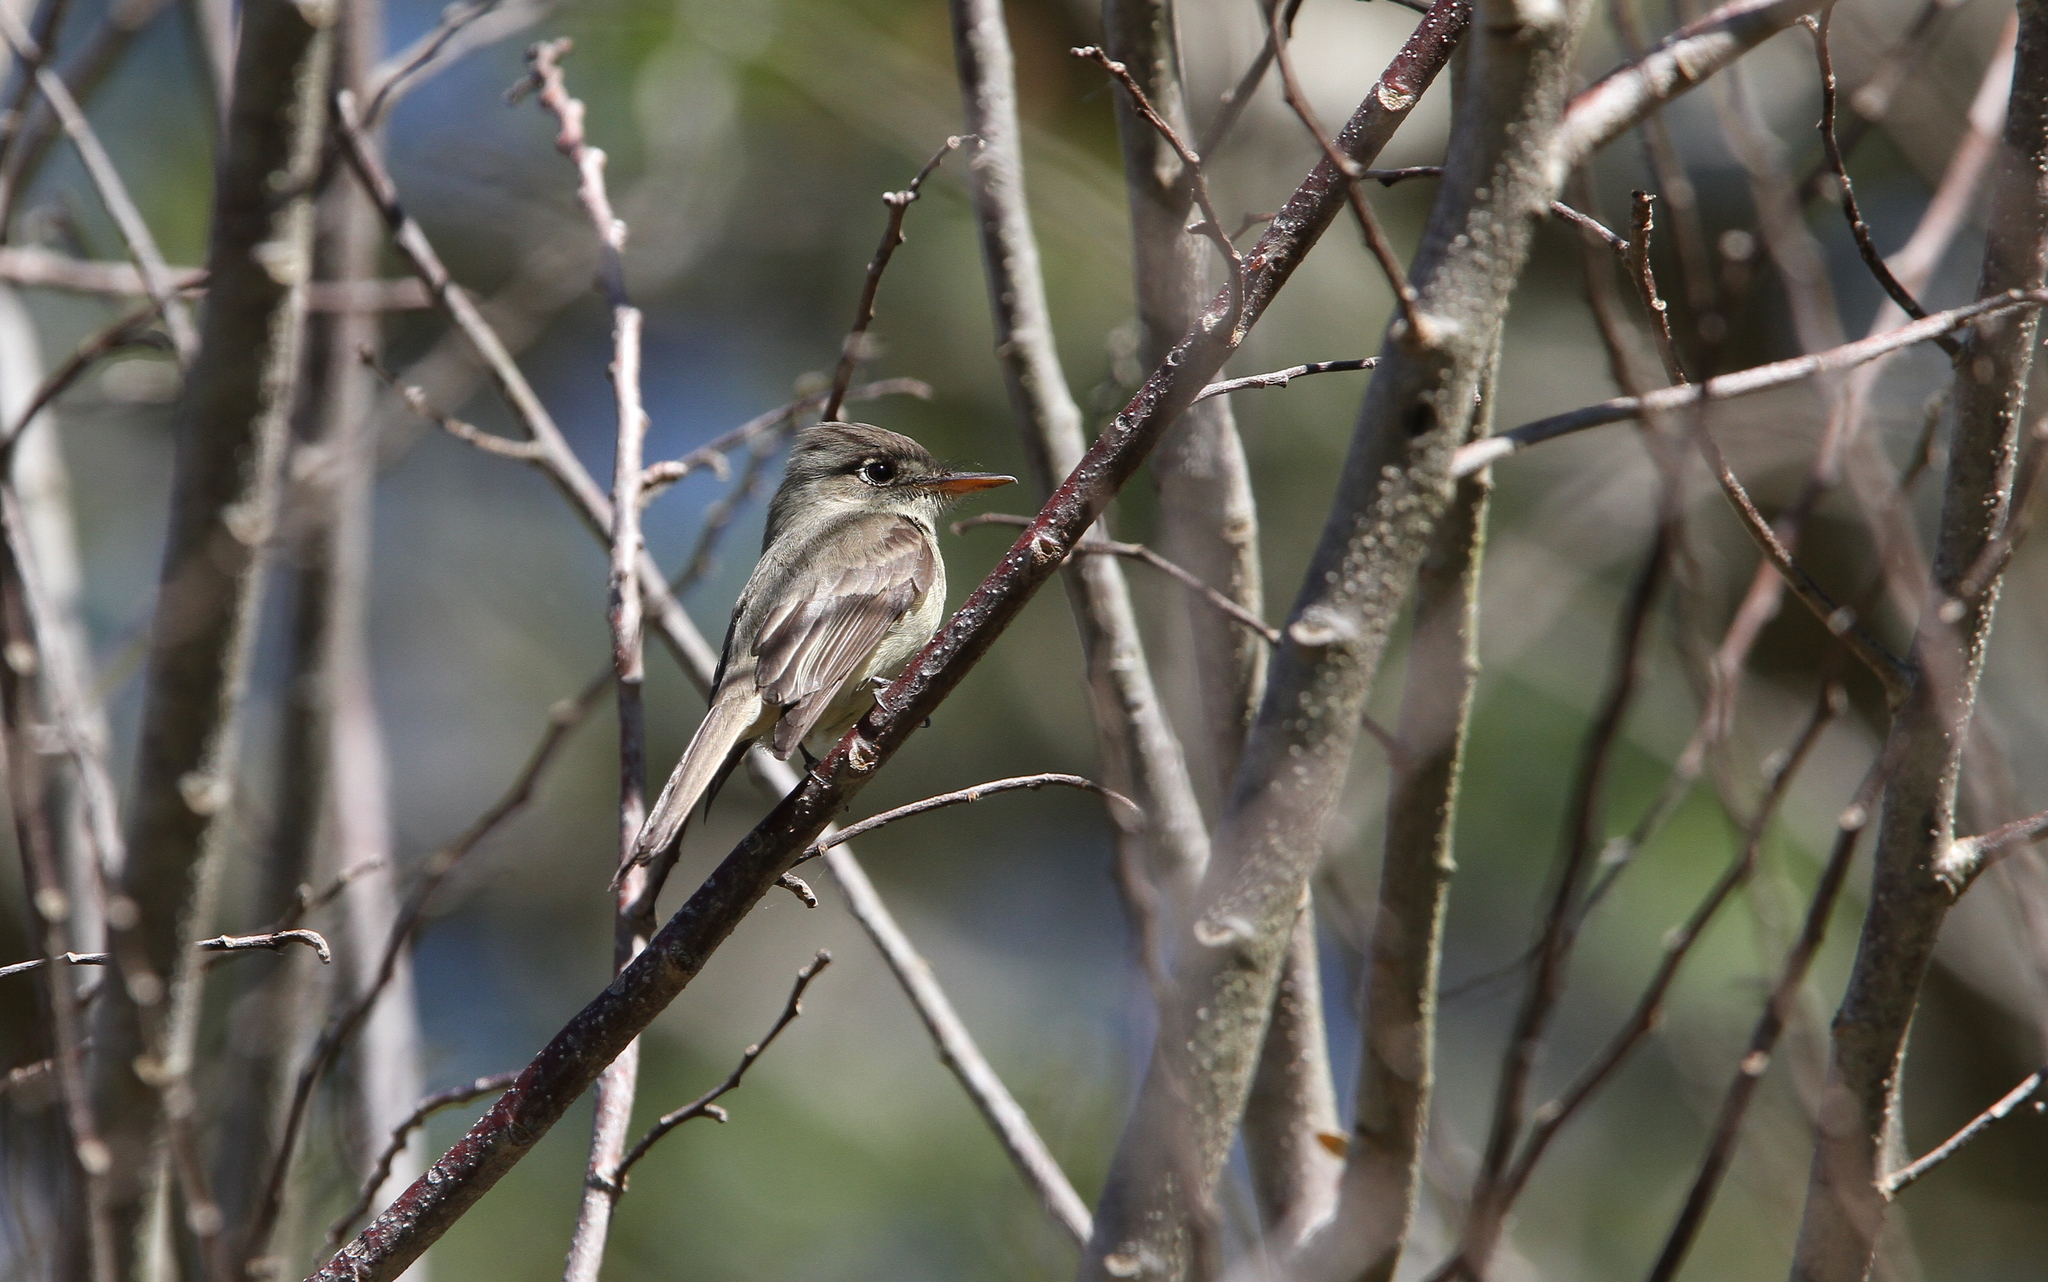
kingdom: Animalia
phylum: Chordata
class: Aves
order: Passeriformes
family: Tyrannidae
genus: Contopus
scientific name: Contopus caribaeus
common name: Cuban pewee
